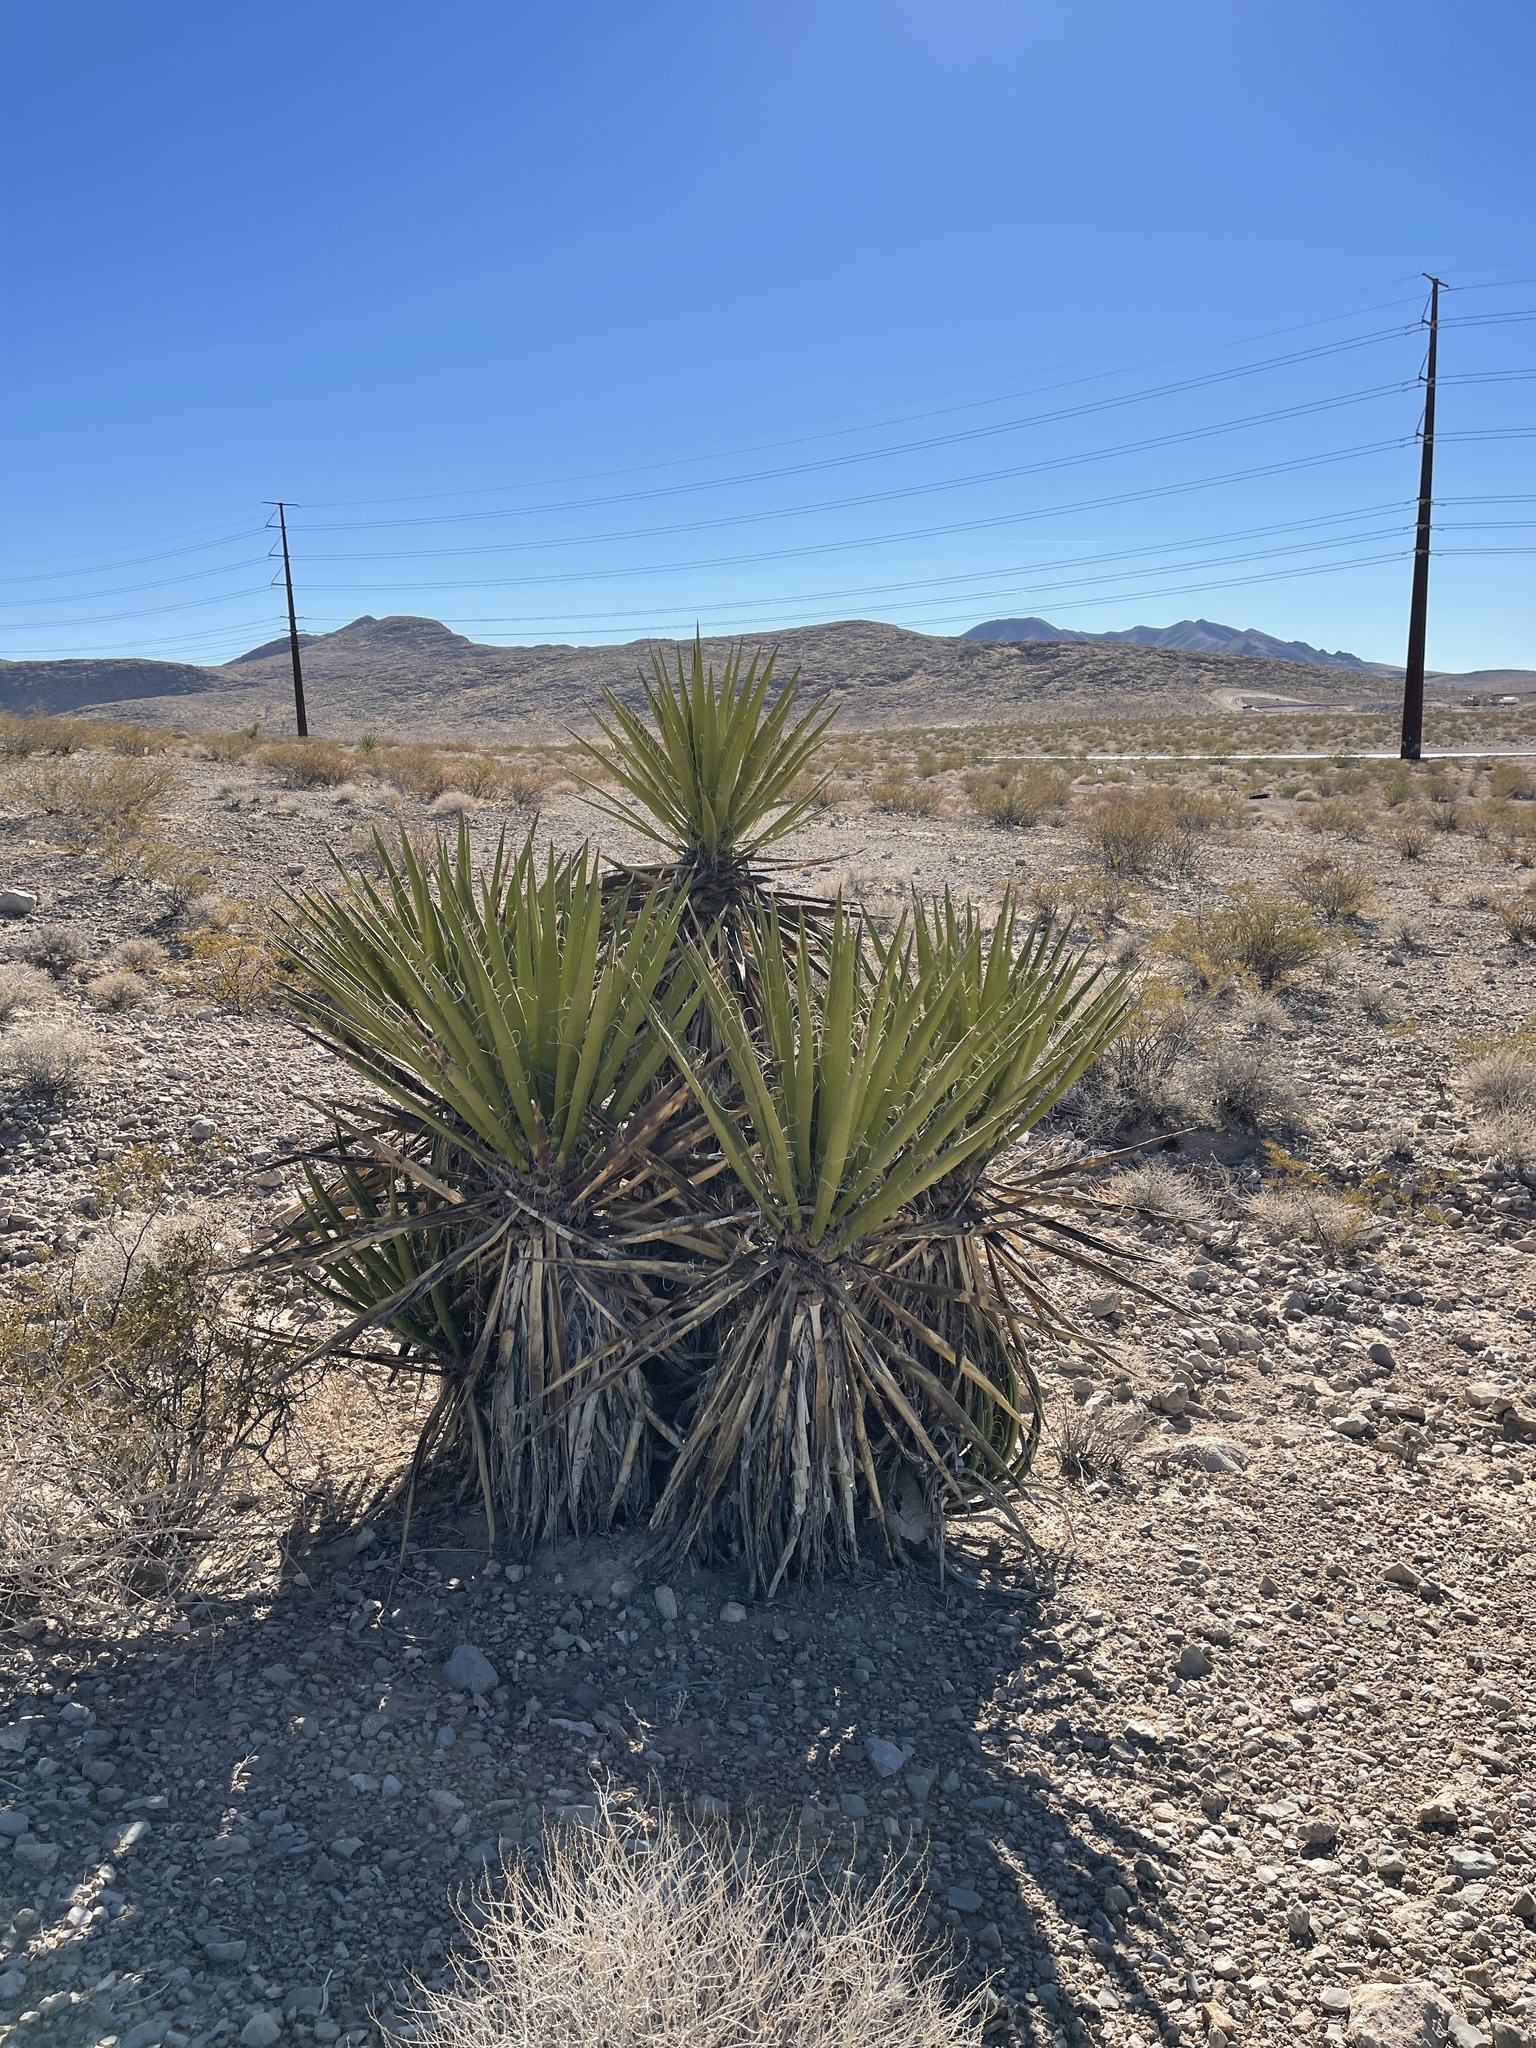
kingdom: Plantae
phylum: Tracheophyta
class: Liliopsida
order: Asparagales
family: Asparagaceae
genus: Yucca
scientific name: Yucca schidigera
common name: Mojave yucca
